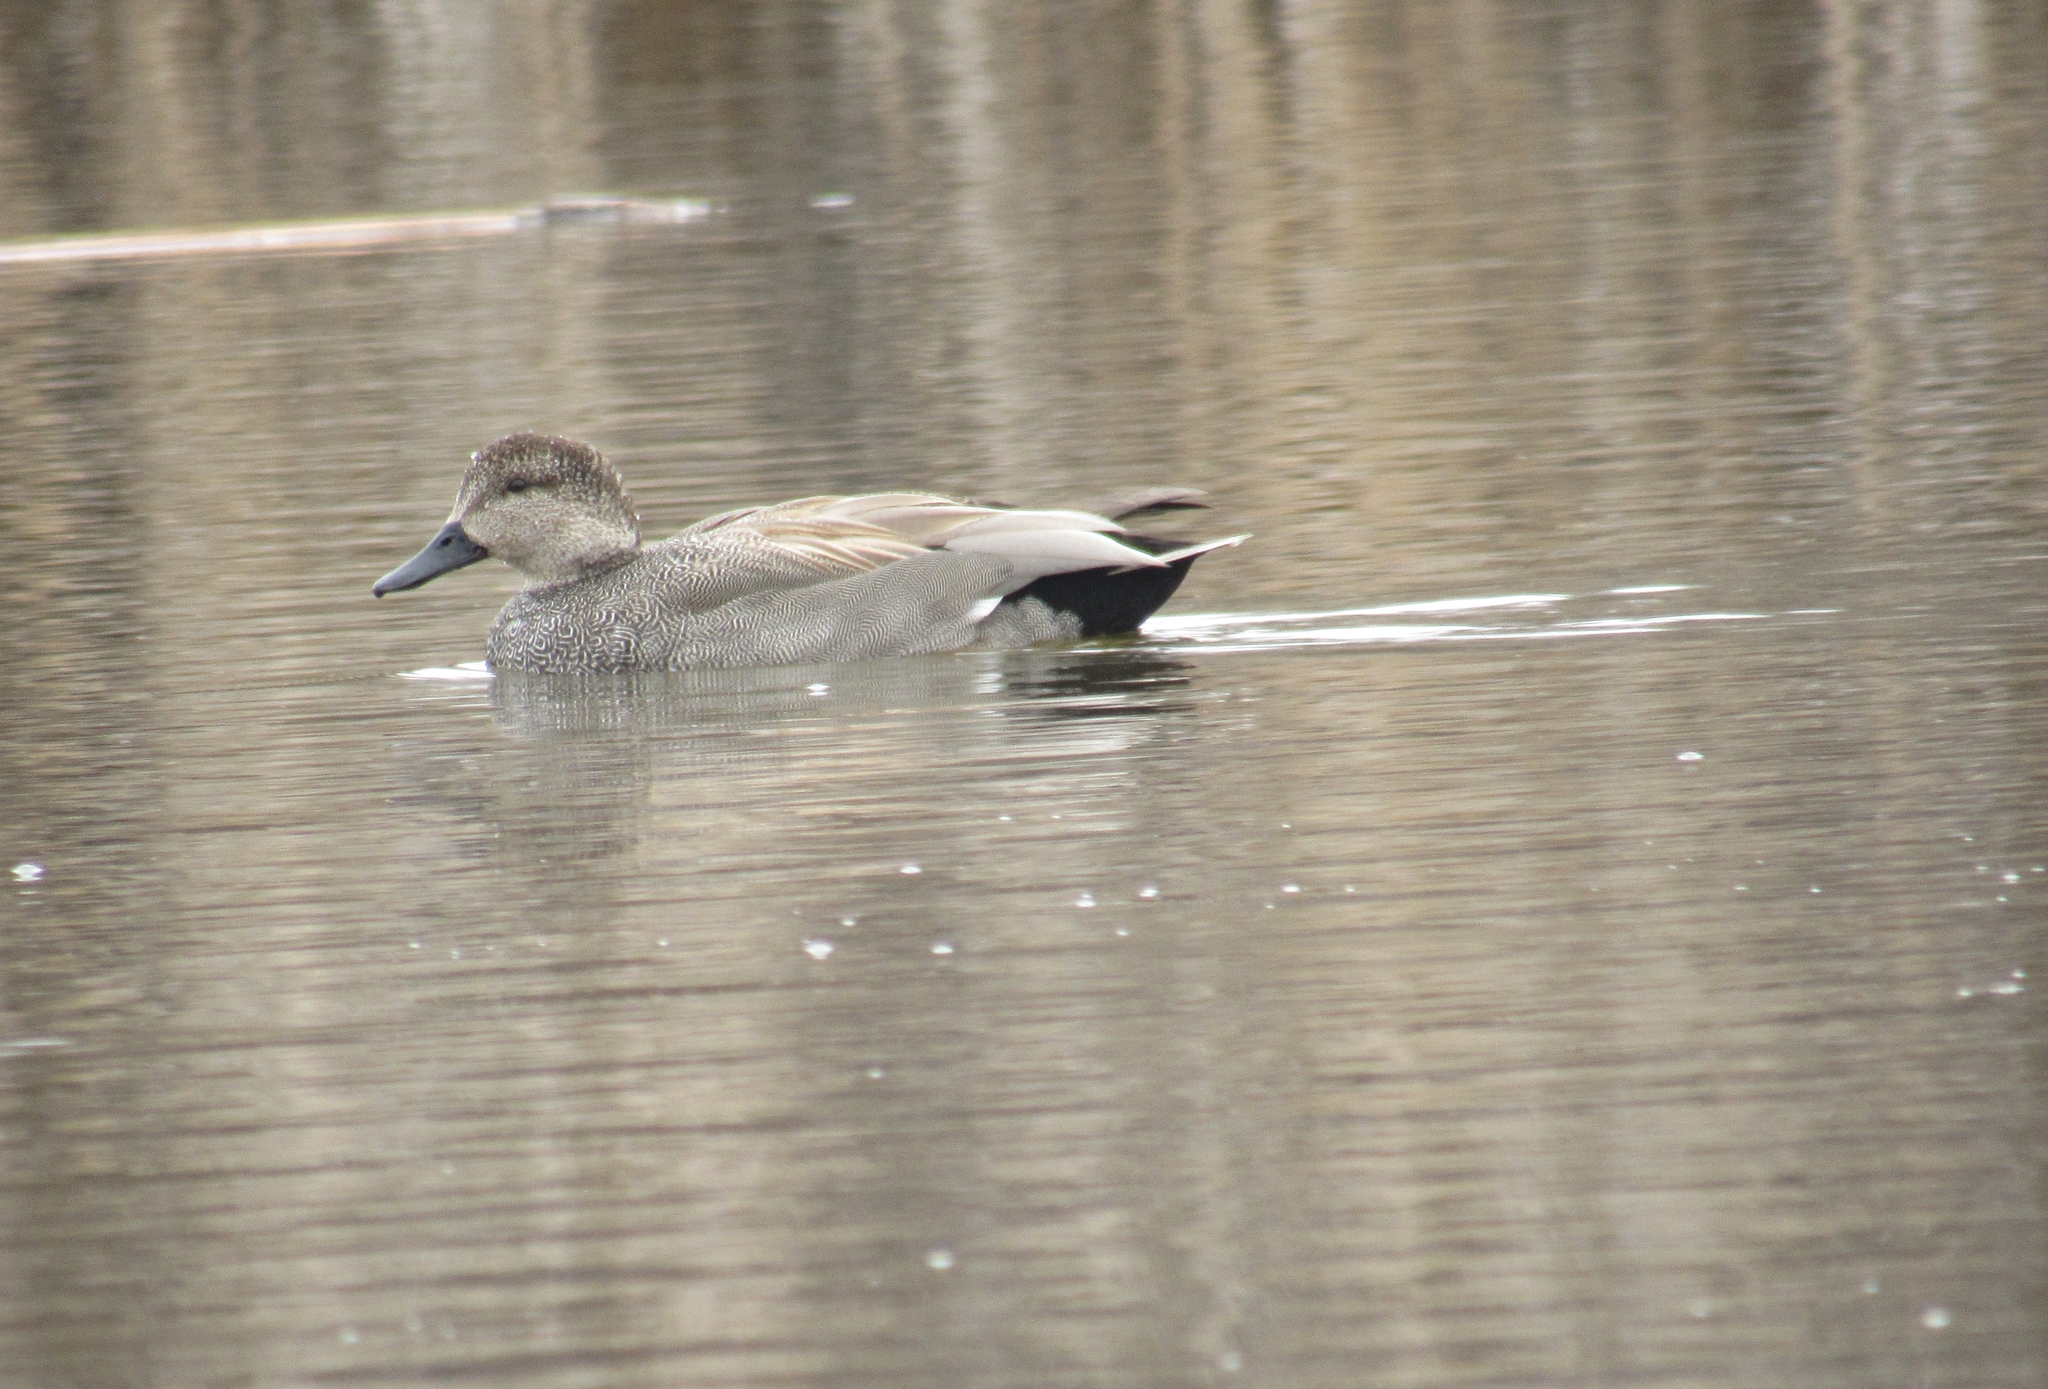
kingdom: Animalia
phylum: Chordata
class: Aves
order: Anseriformes
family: Anatidae
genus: Mareca
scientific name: Mareca strepera
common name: Gadwall
